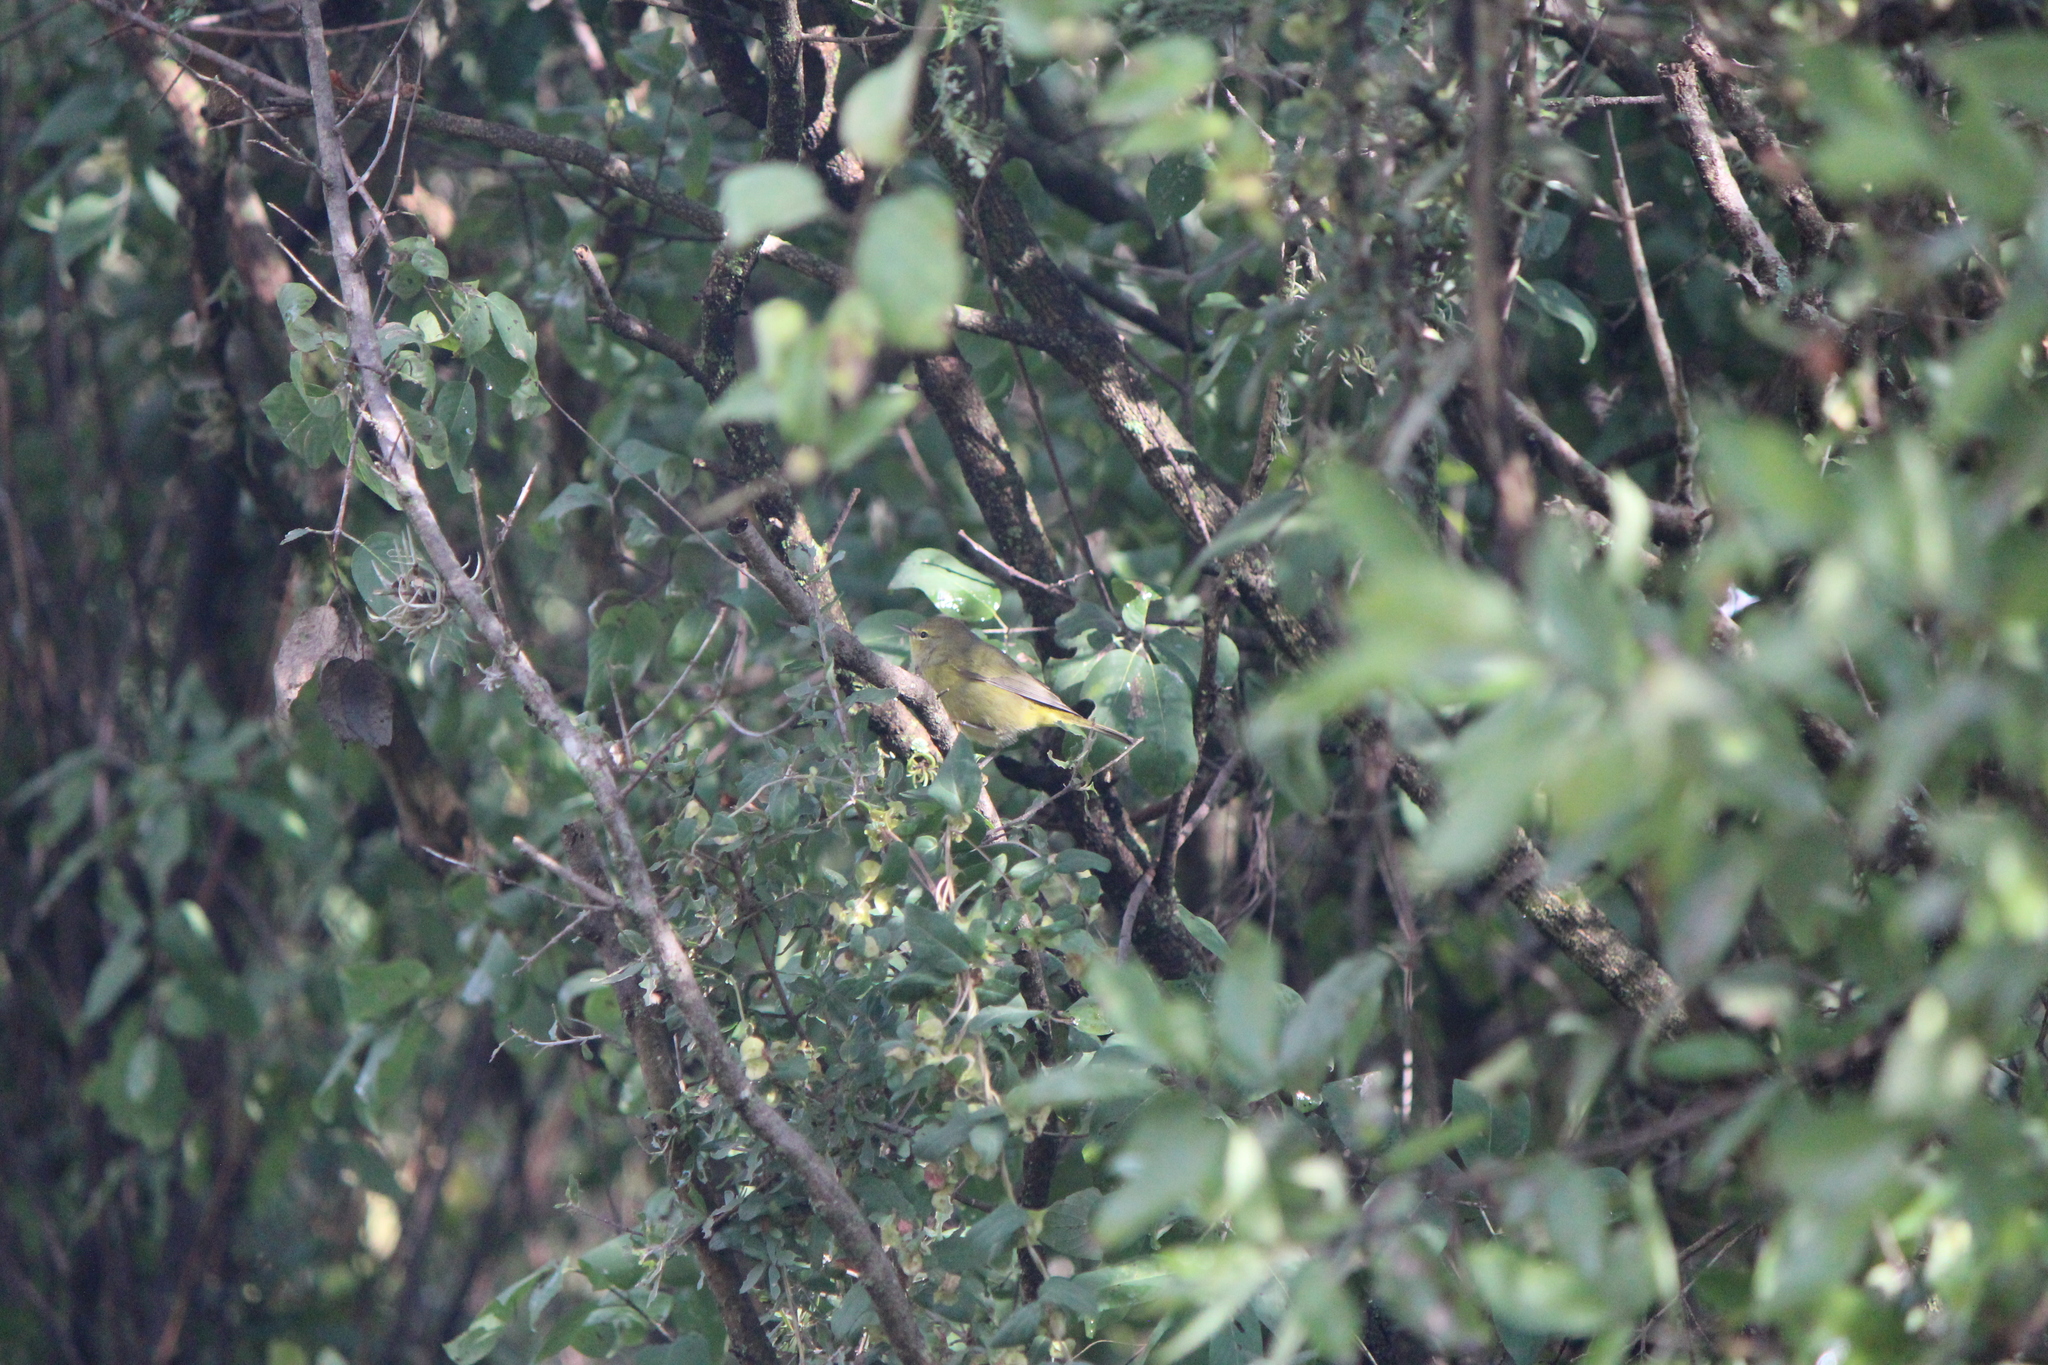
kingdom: Animalia
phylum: Chordata
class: Aves
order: Passeriformes
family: Parulidae
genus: Leiothlypis
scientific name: Leiothlypis celata
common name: Orange-crowned warbler
